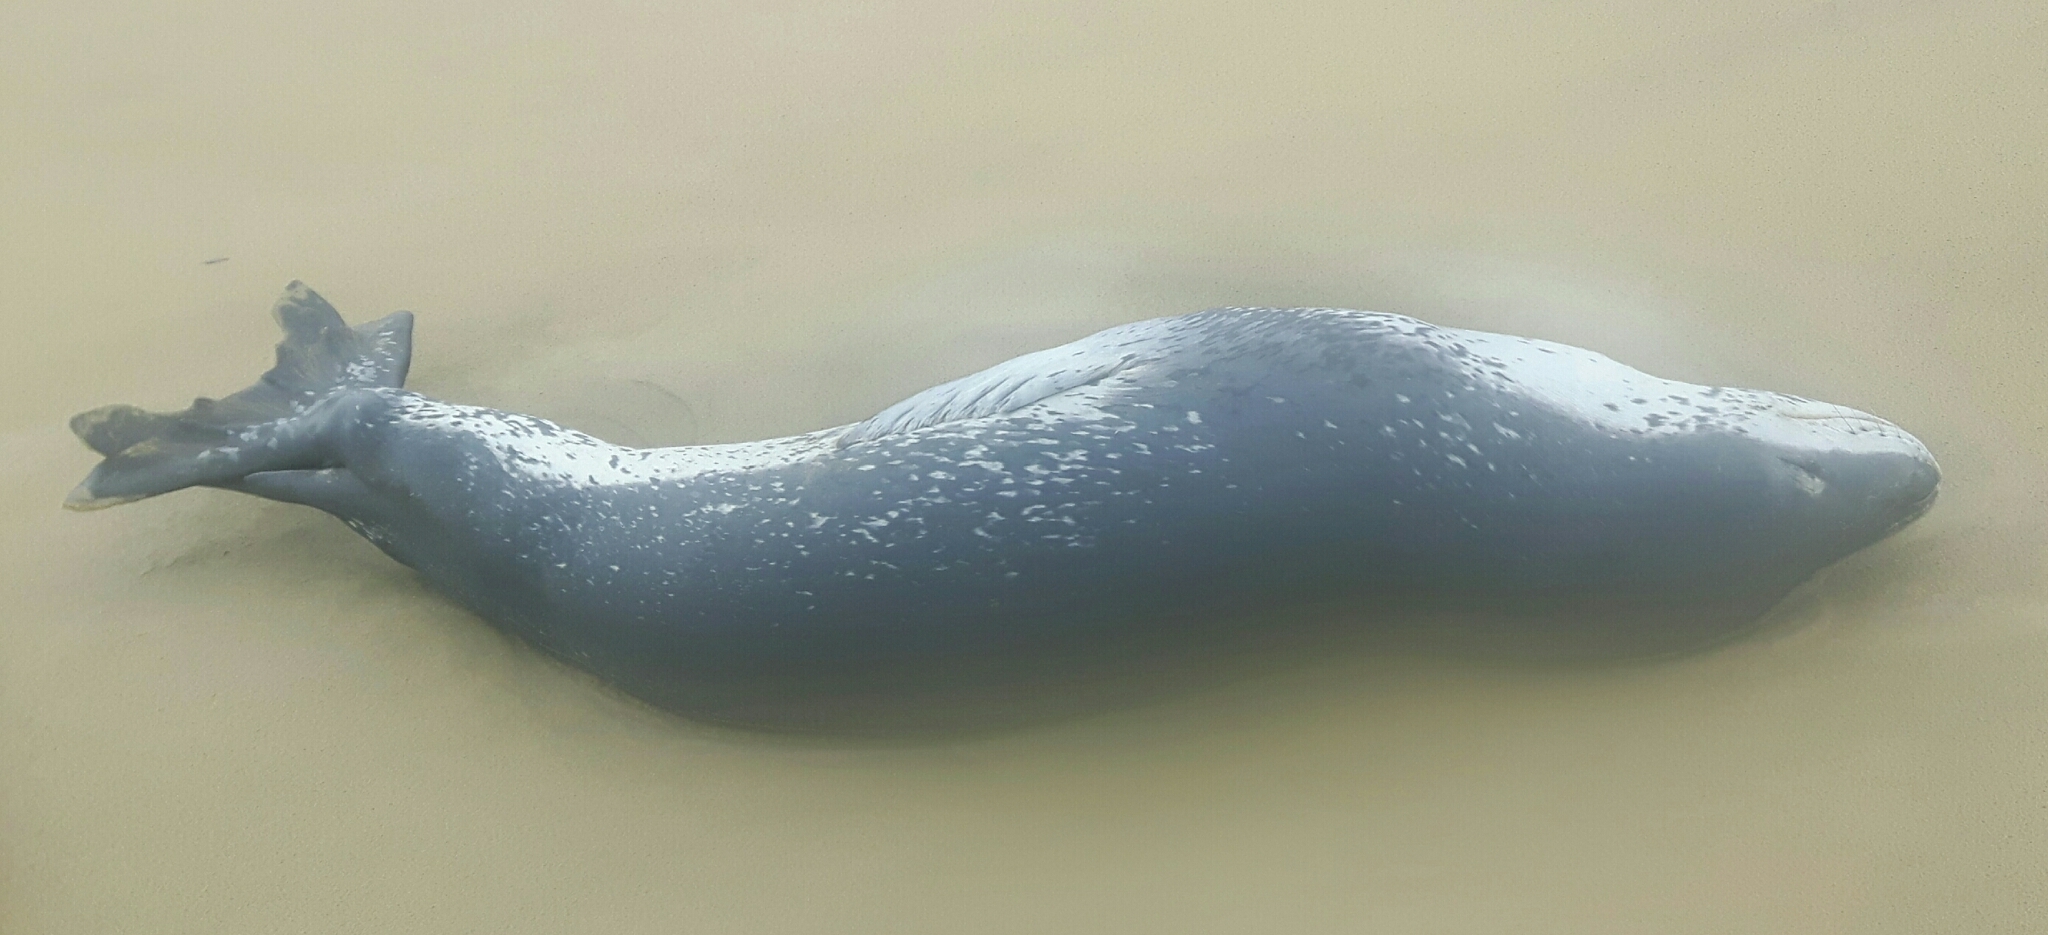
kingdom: Animalia
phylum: Chordata
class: Mammalia
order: Carnivora
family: Phocidae
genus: Hydrurga
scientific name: Hydrurga leptonyx
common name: Leopard seal
